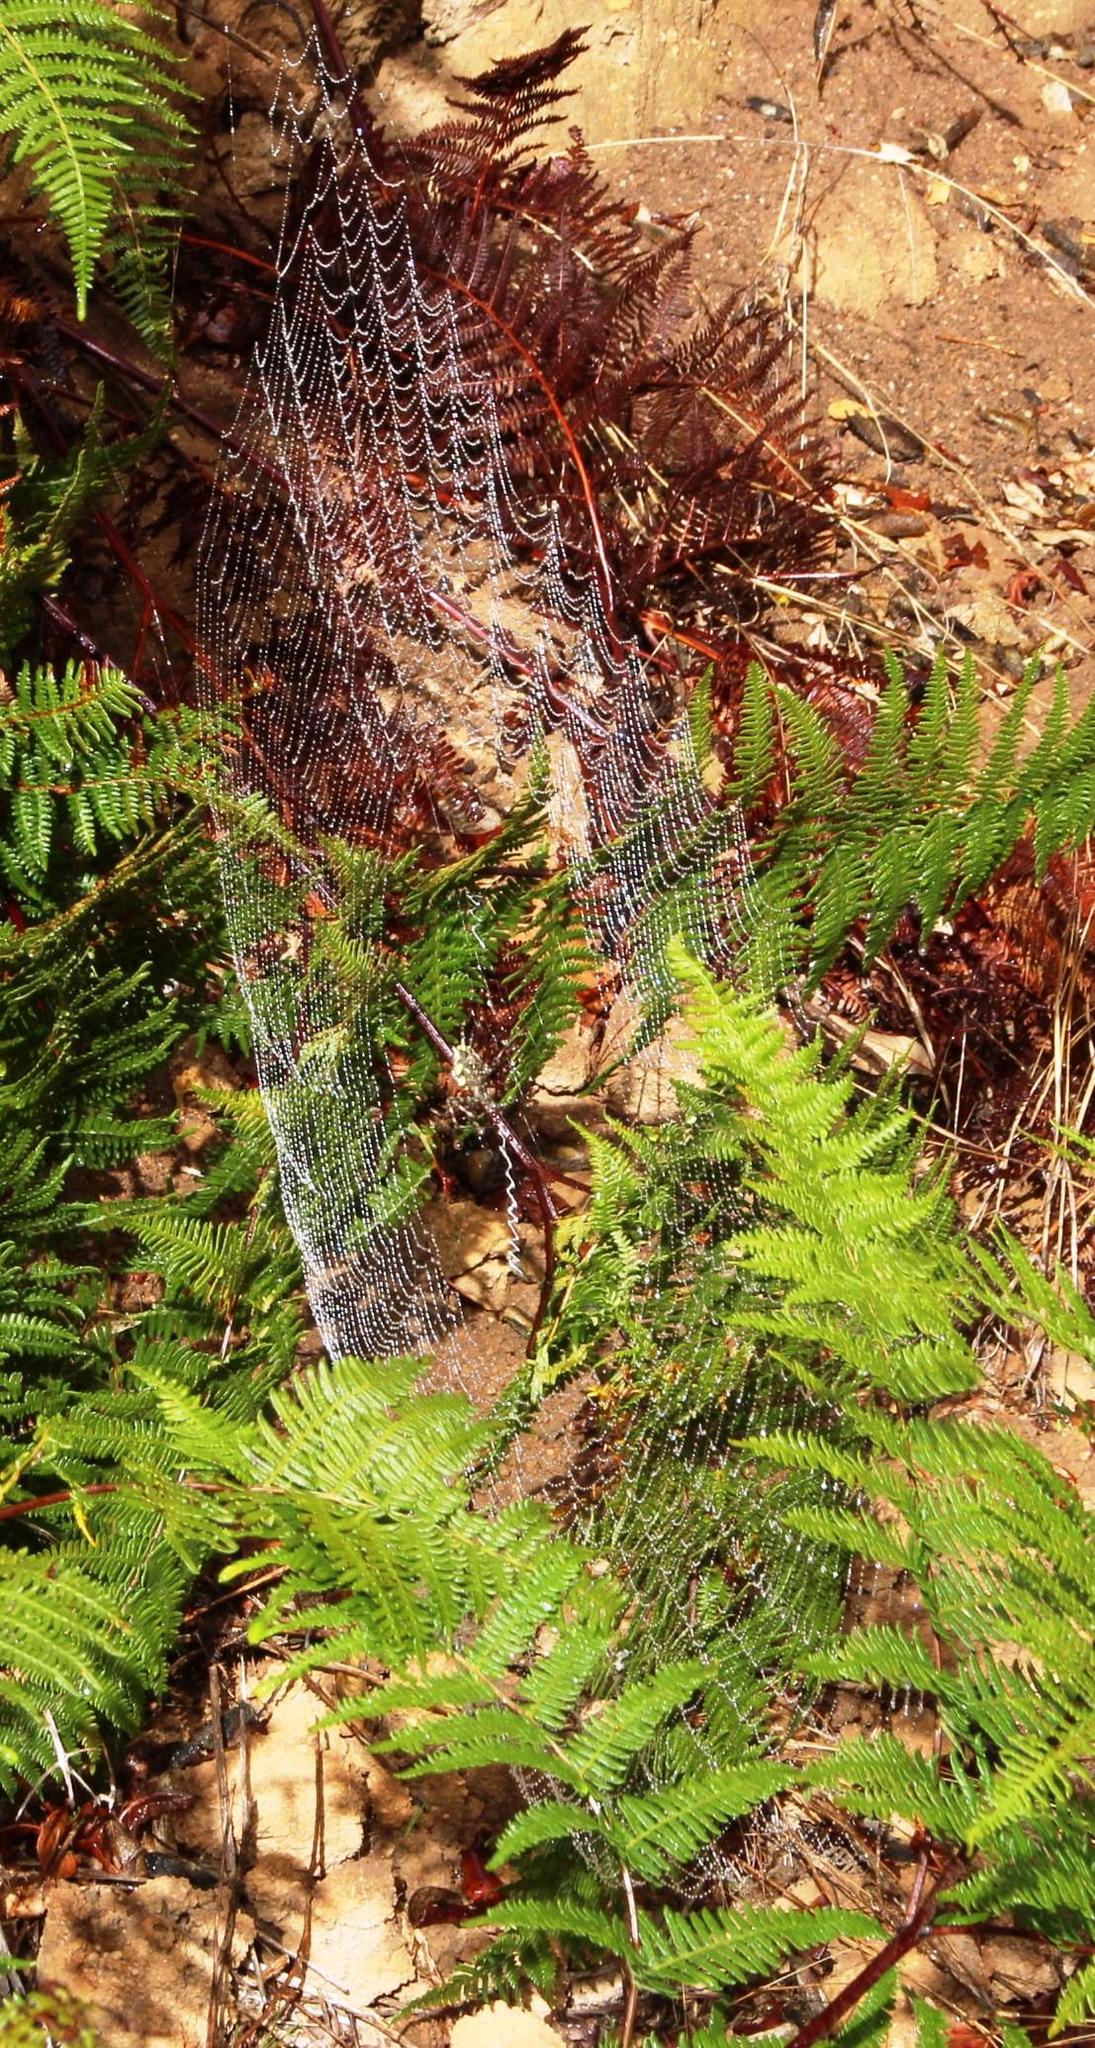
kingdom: Animalia
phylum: Arthropoda
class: Arachnida
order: Araneae
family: Araneidae
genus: Argiope
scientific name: Argiope australis
